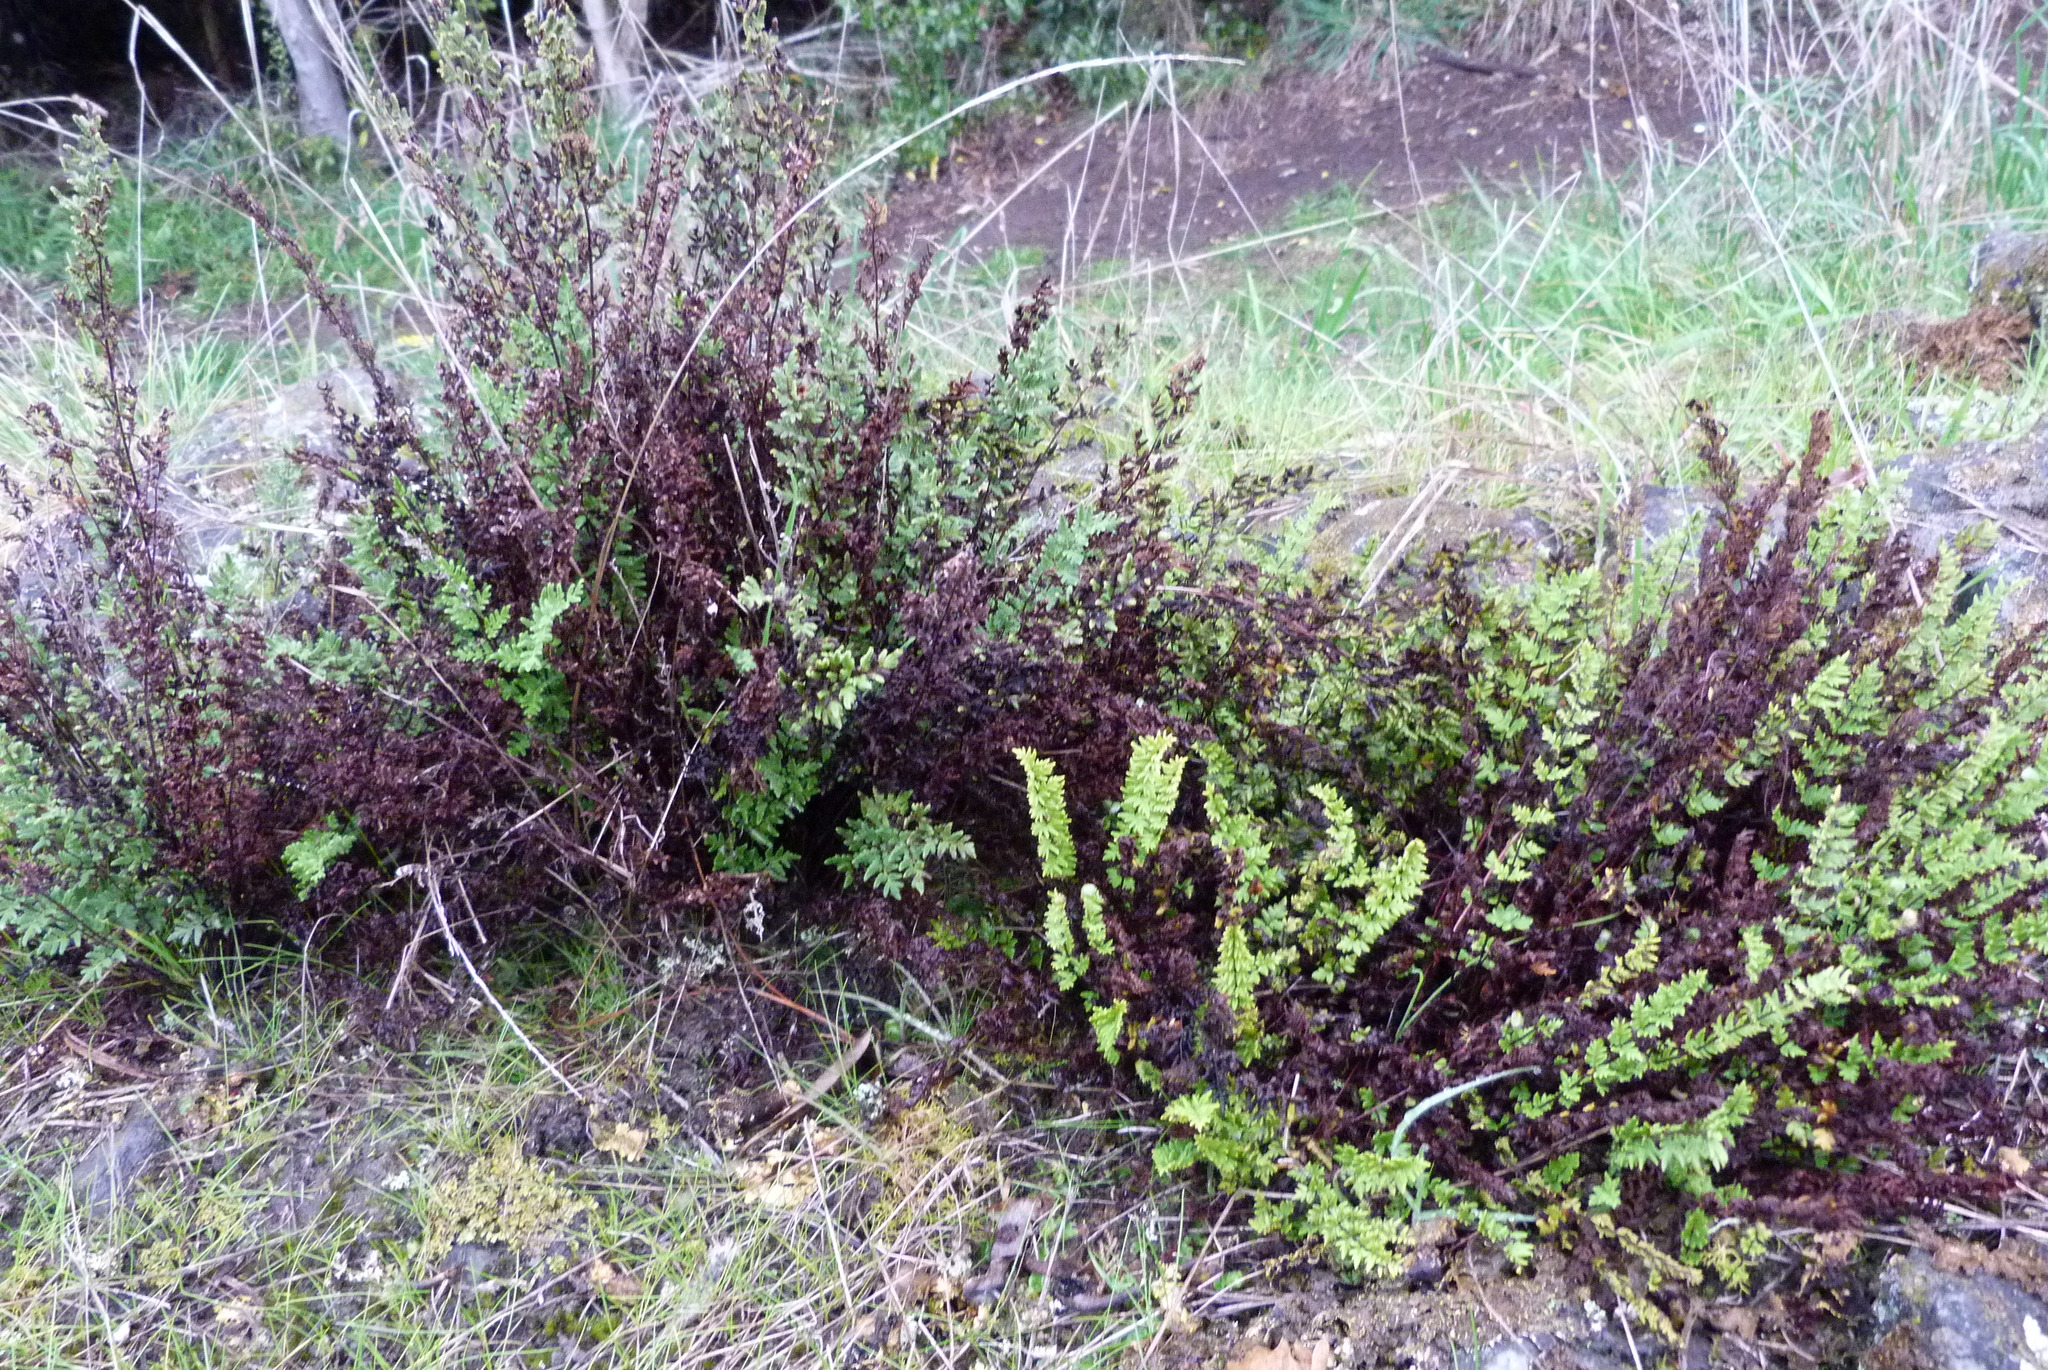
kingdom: Plantae
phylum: Tracheophyta
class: Polypodiopsida
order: Polypodiales
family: Pteridaceae
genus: Cheilanthes
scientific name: Cheilanthes sieberi
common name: Mulga fern
